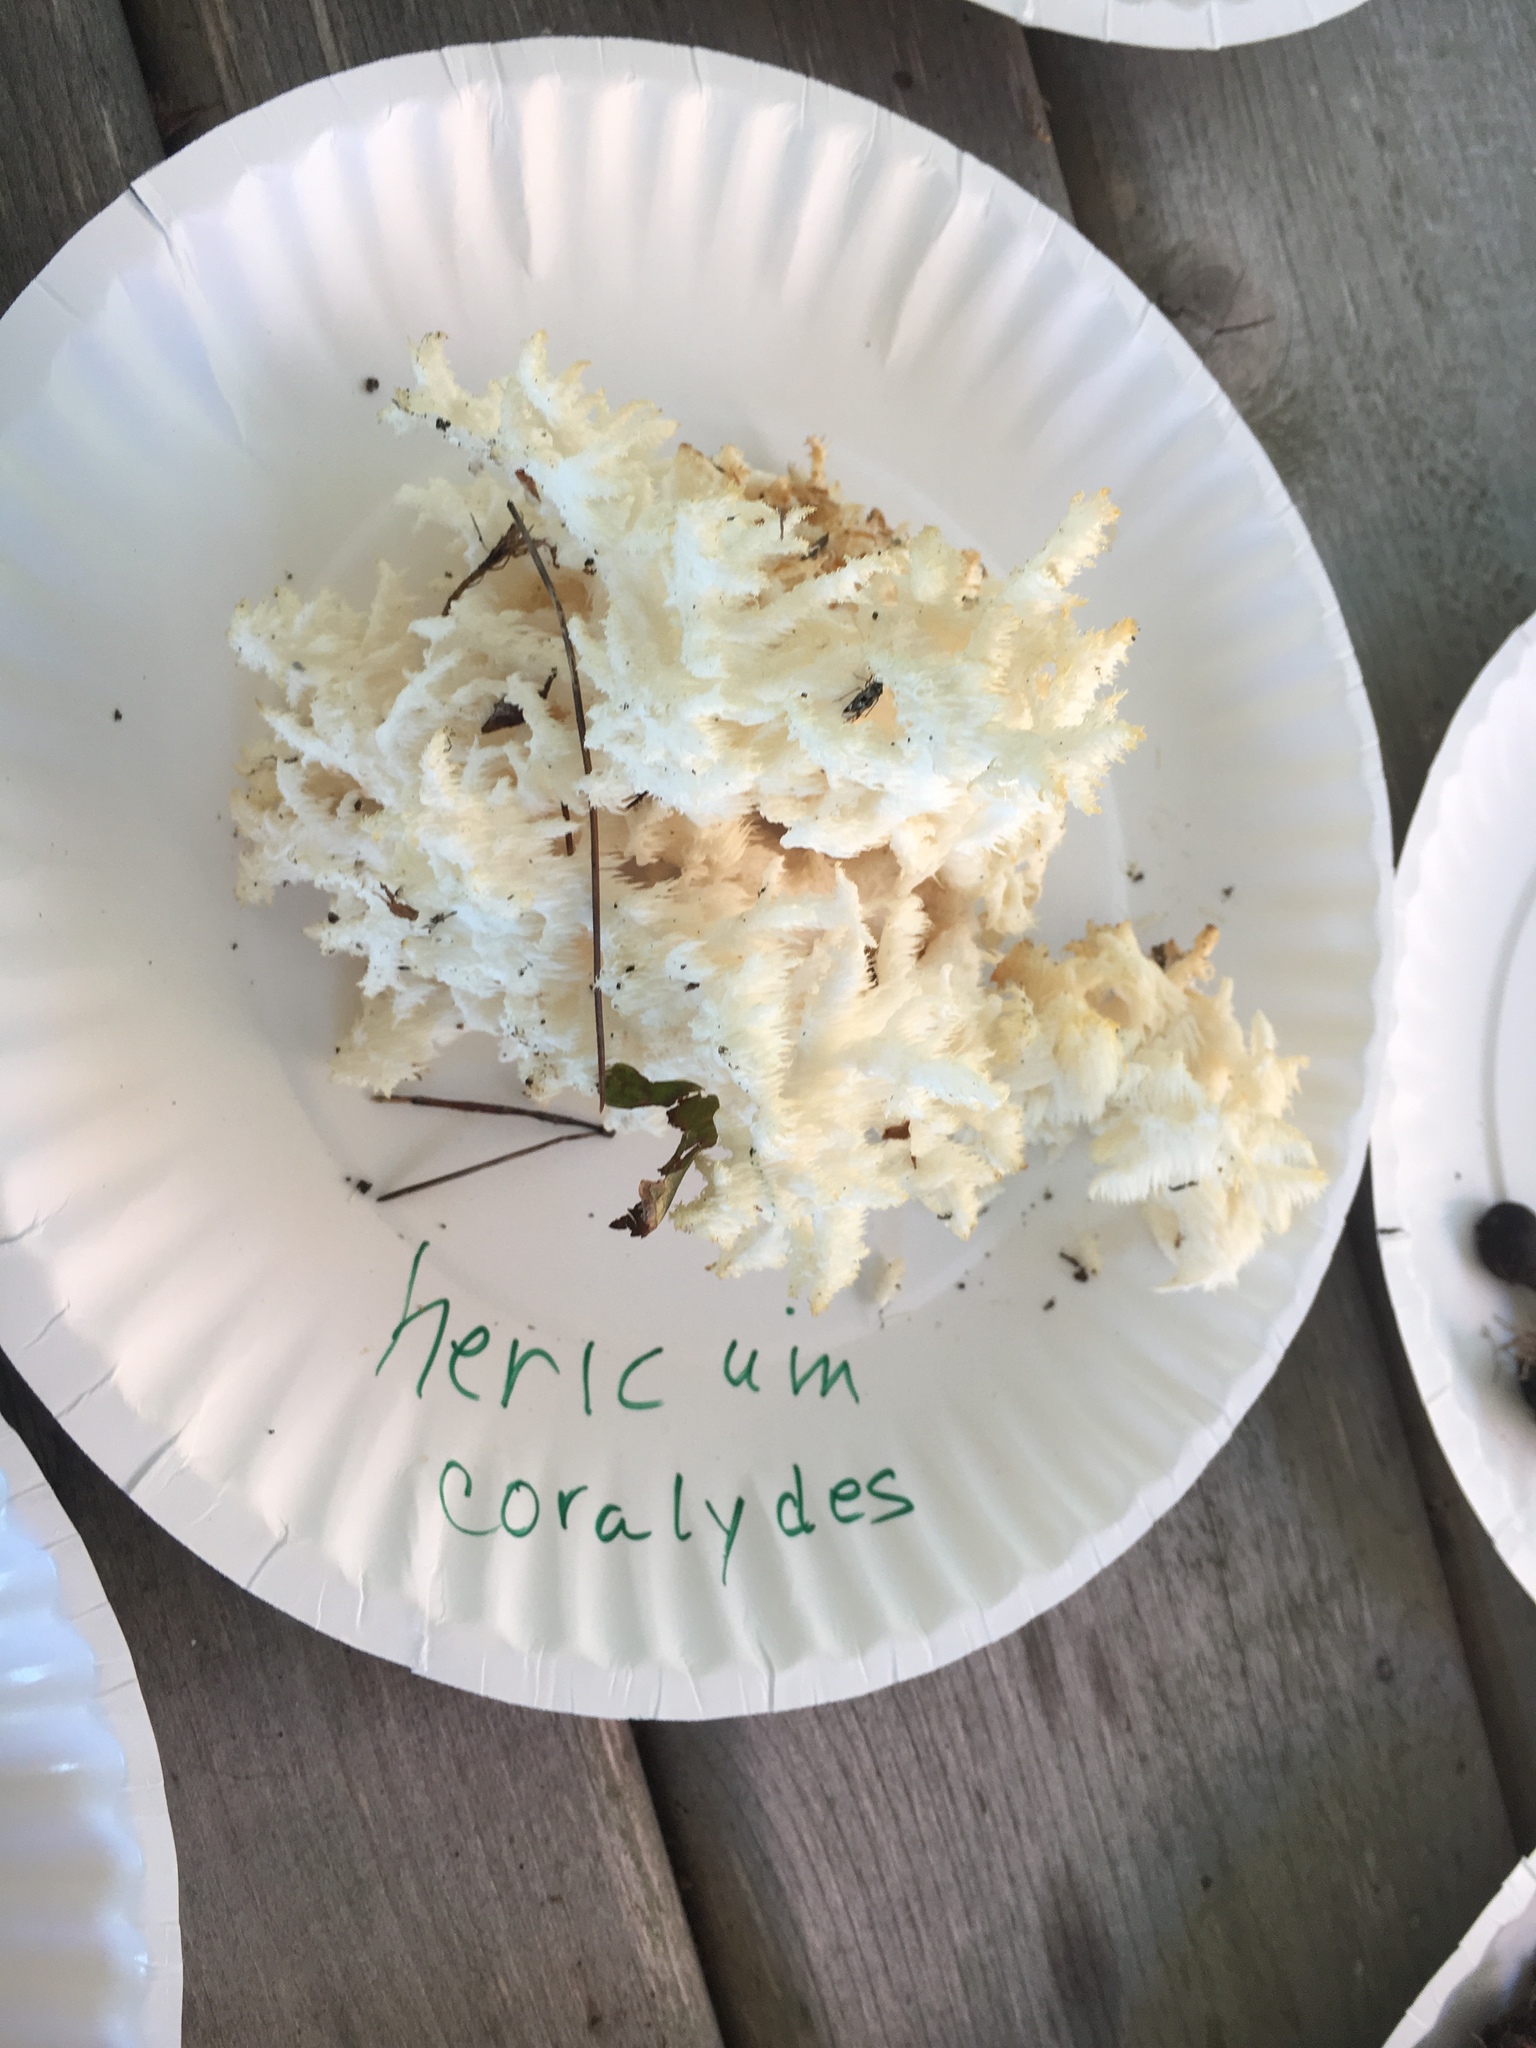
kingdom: Fungi
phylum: Basidiomycota
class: Agaricomycetes
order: Russulales
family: Hericiaceae
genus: Hericium
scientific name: Hericium coralloides
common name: Coral tooth
